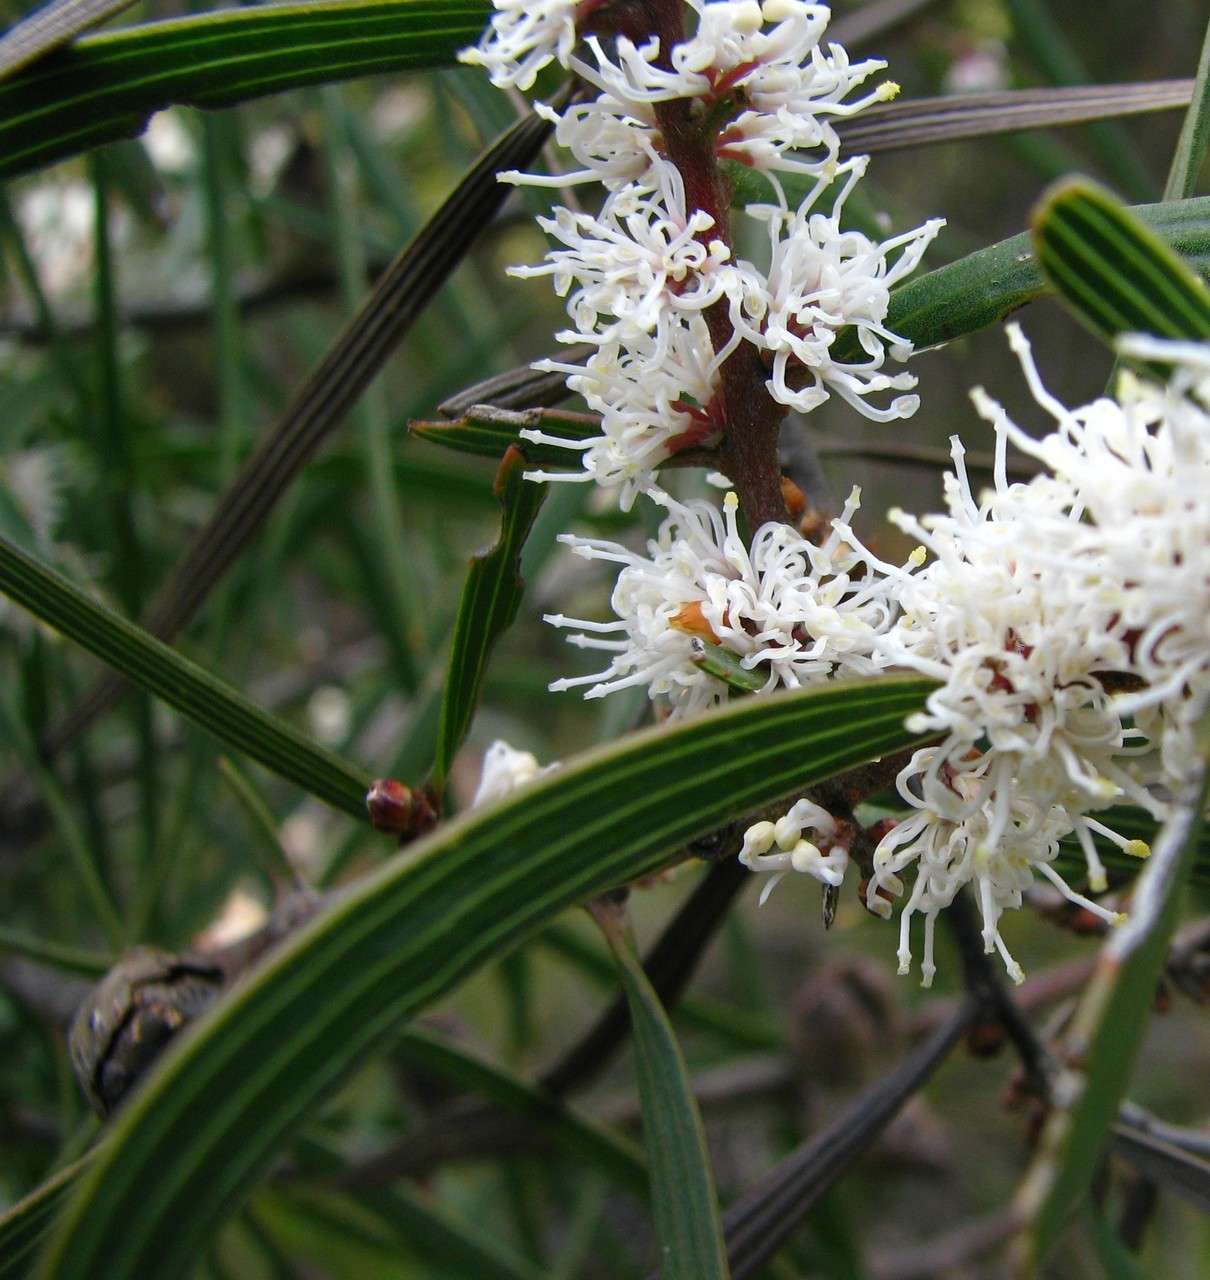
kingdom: Plantae
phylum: Tracheophyta
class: Magnoliopsida
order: Proteales
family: Proteaceae
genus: Hakea
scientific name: Hakea ulicina
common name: Furze hakea
